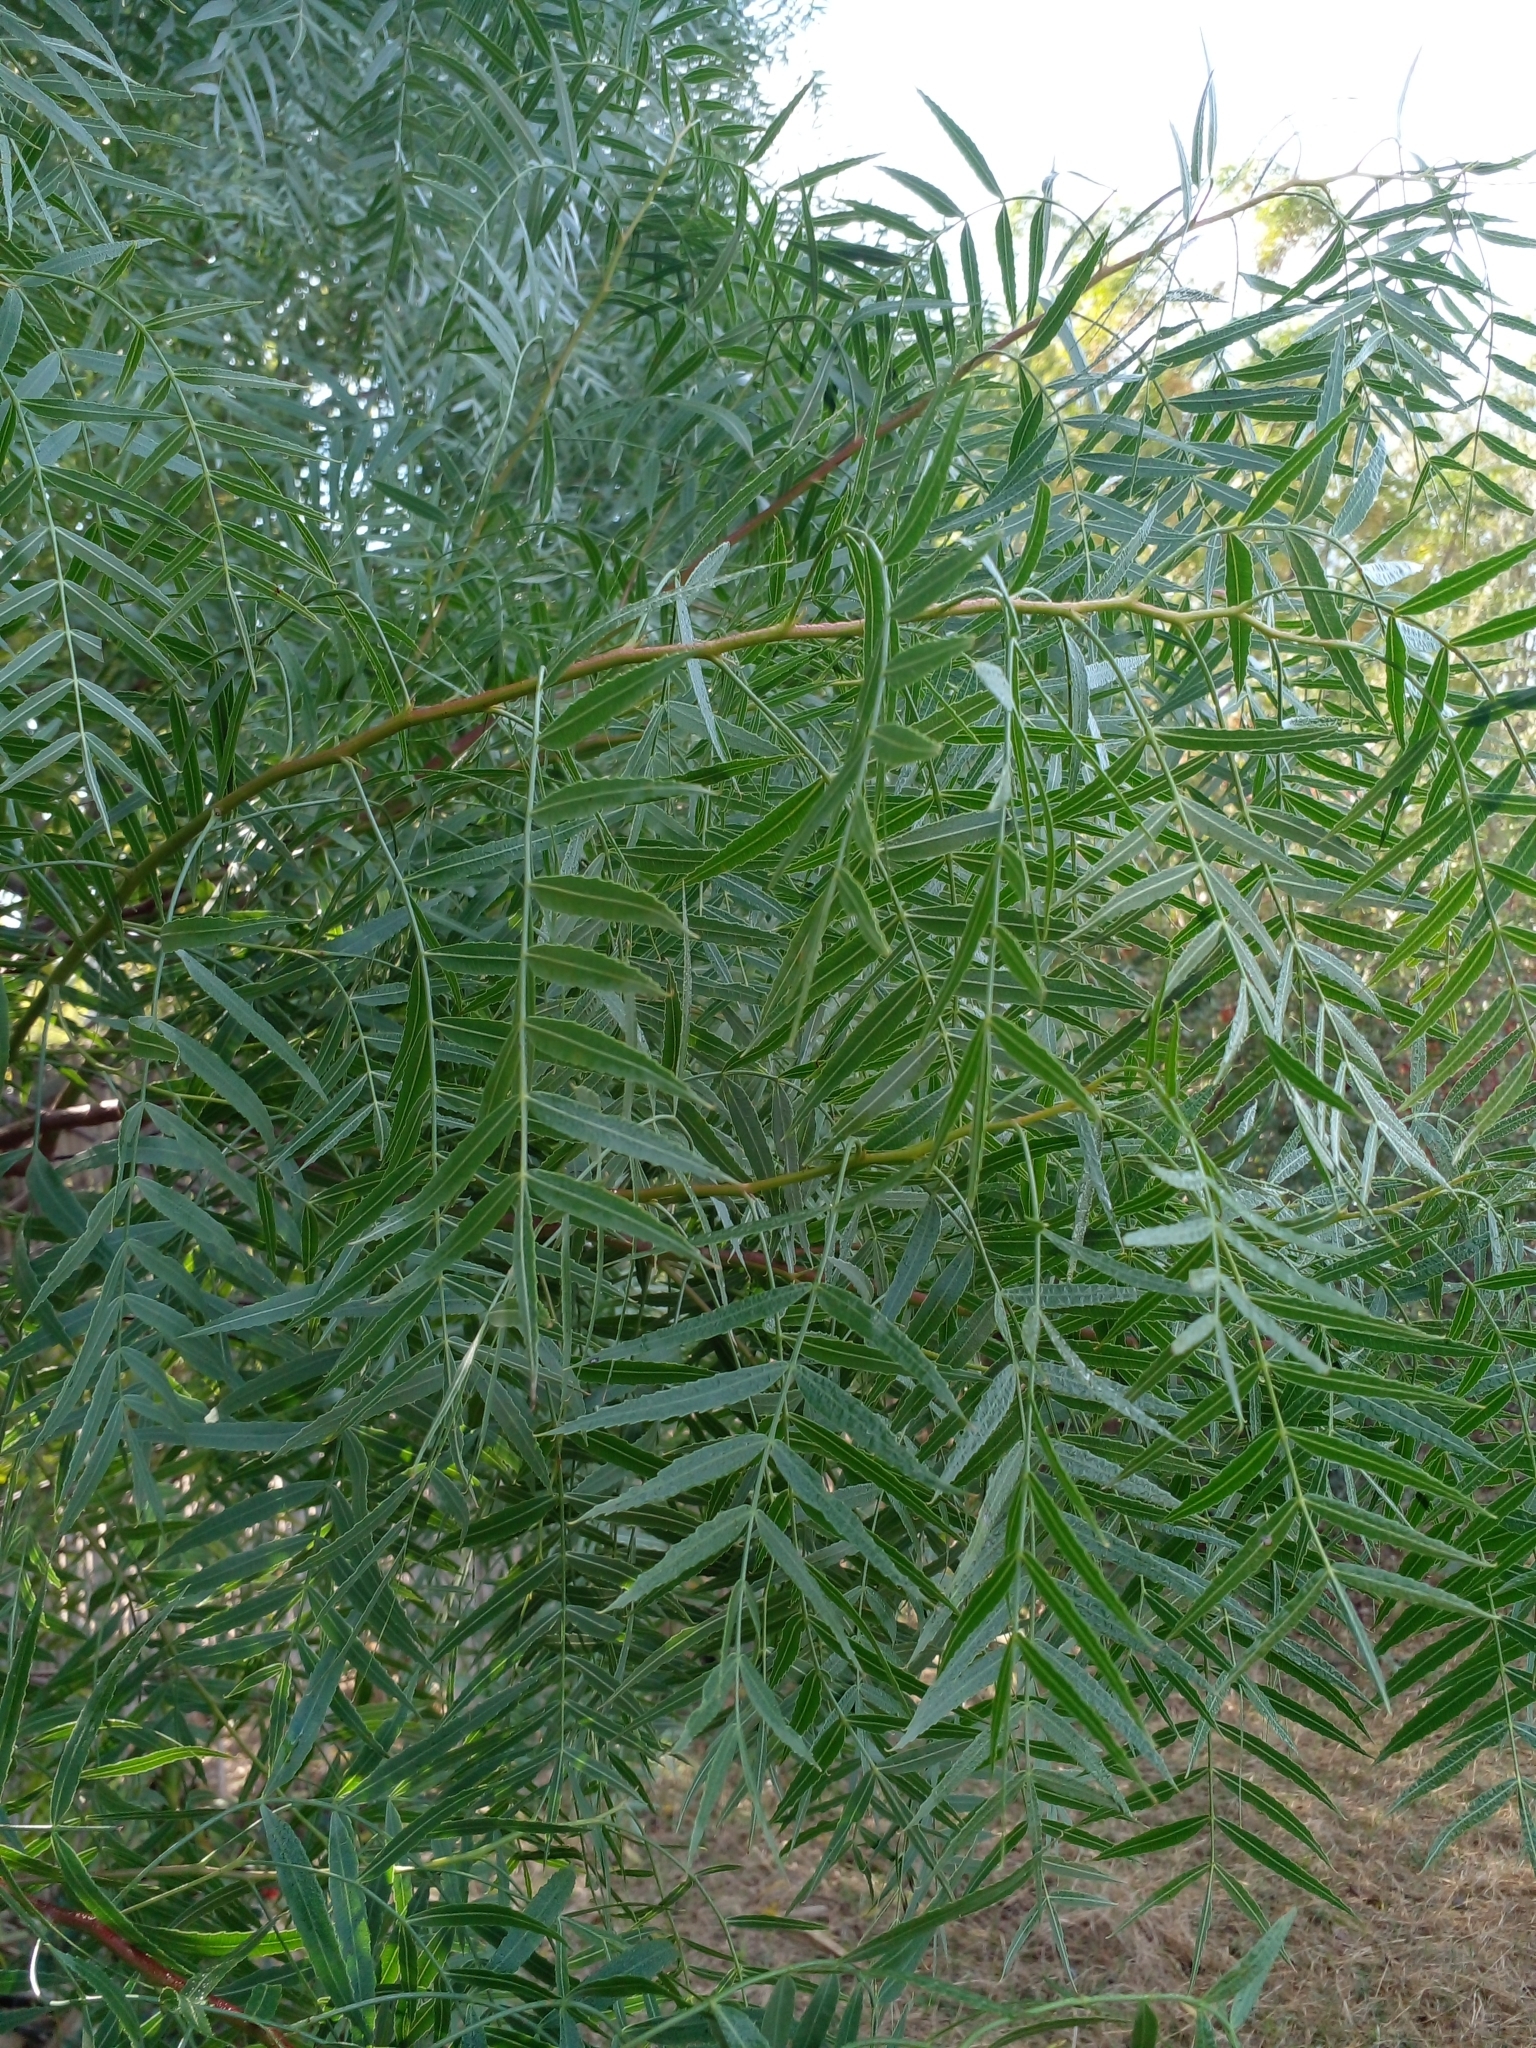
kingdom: Plantae
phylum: Tracheophyta
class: Magnoliopsida
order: Sapindales
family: Anacardiaceae
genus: Schinus
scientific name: Schinus molle
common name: Peruvian peppertree
